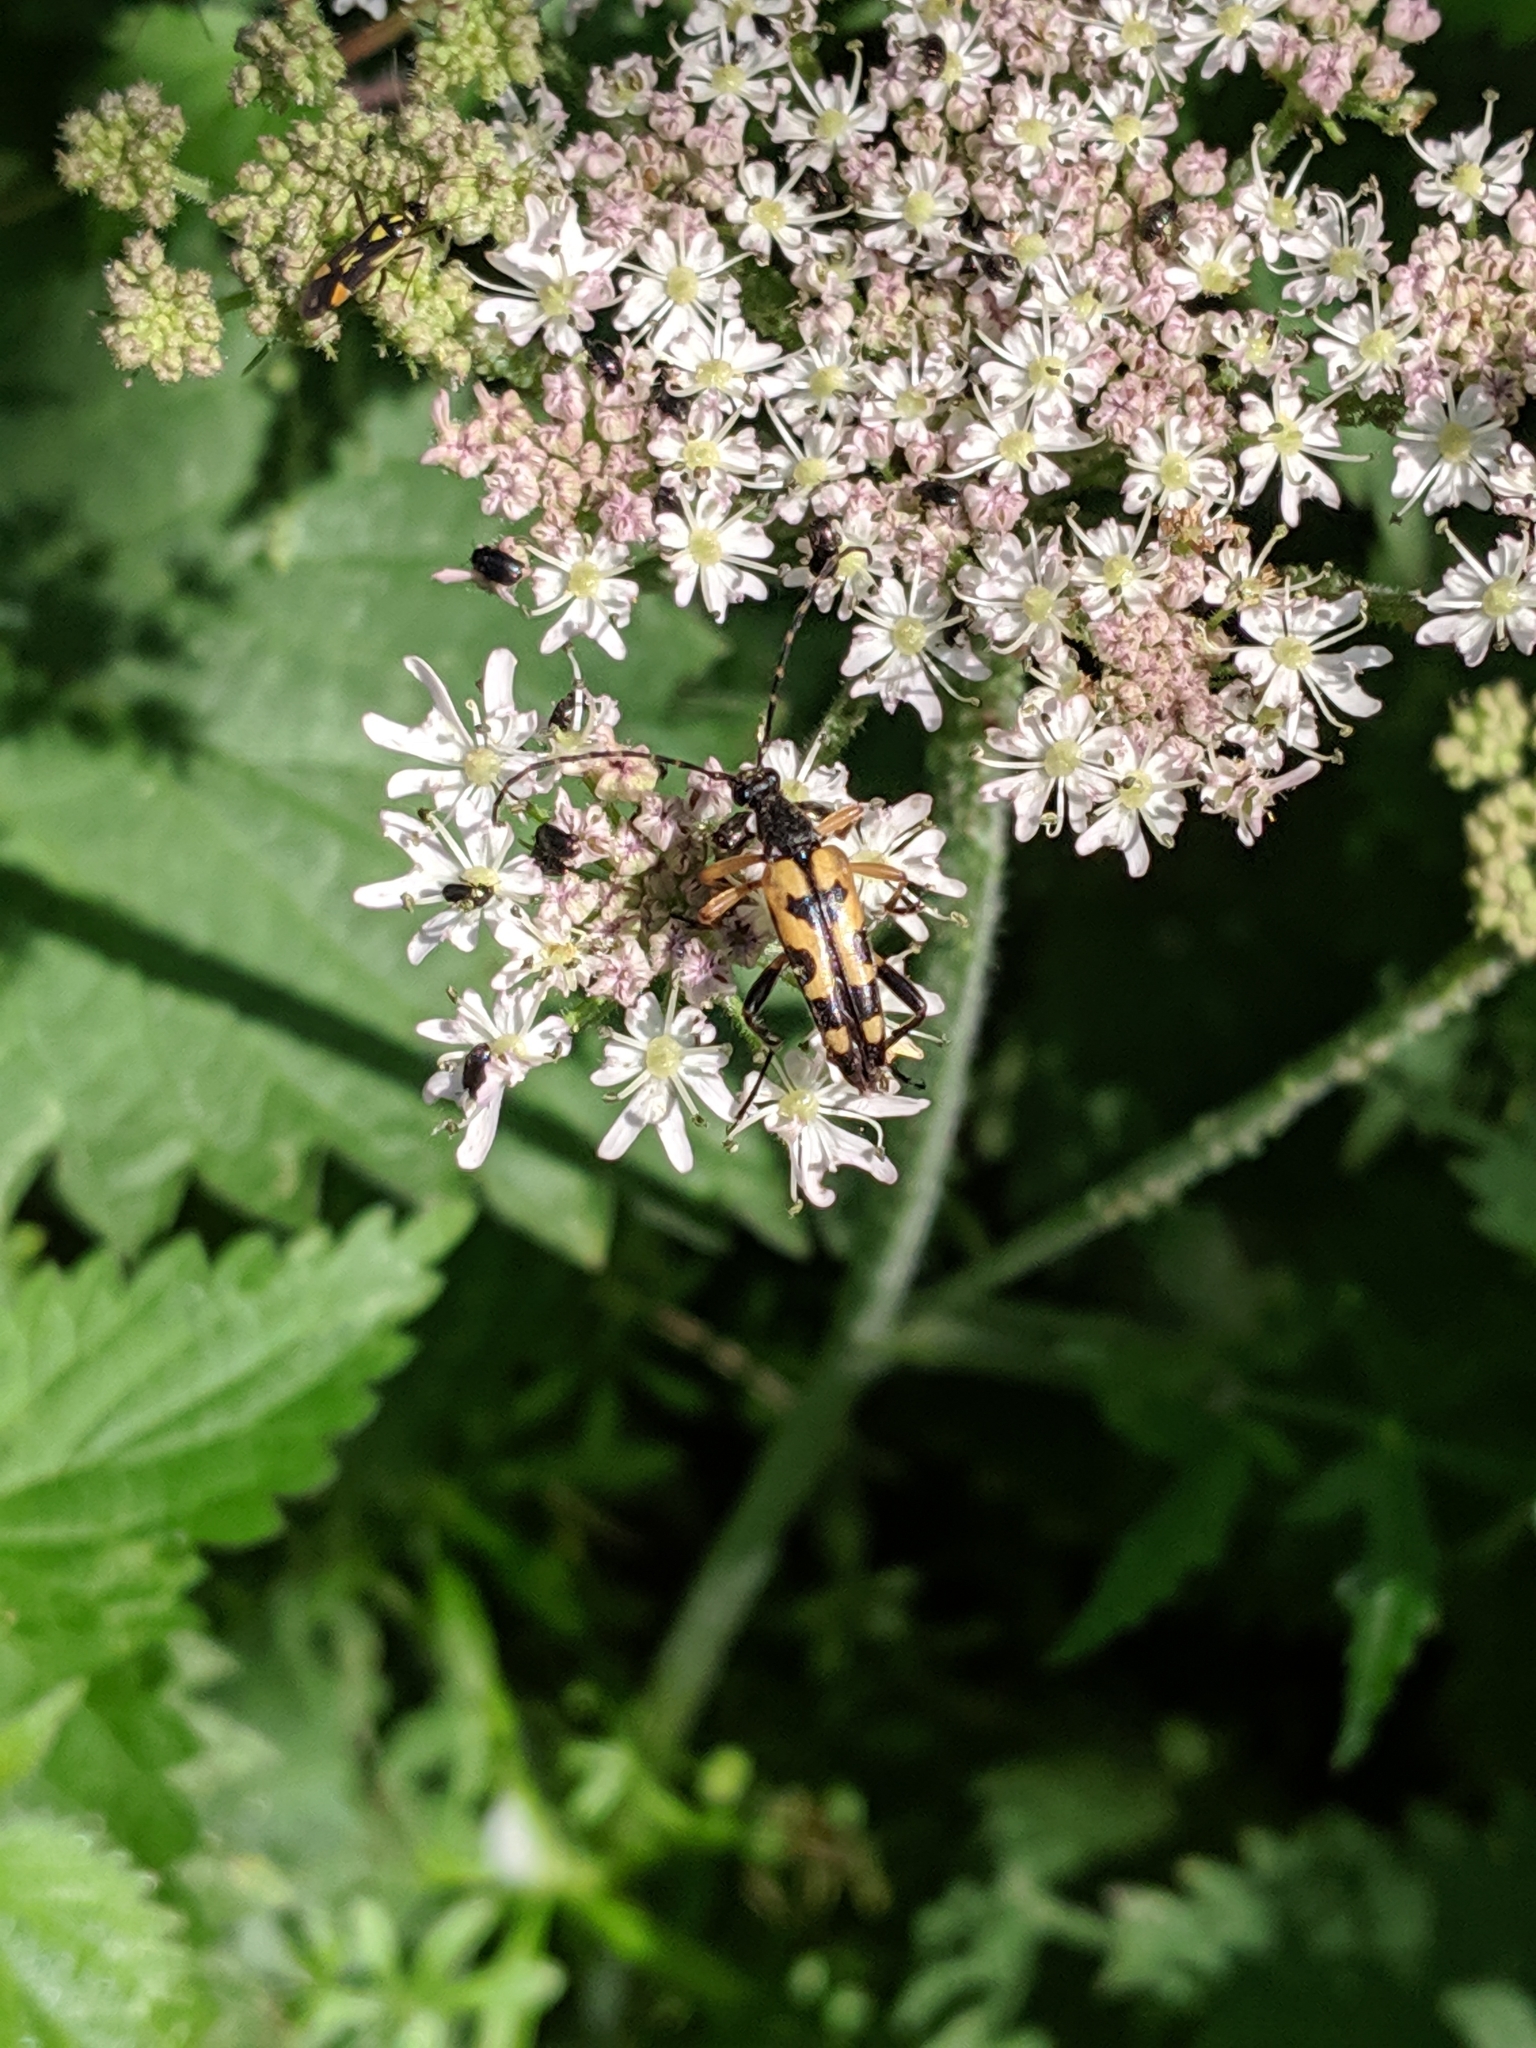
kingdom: Animalia
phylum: Arthropoda
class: Insecta
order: Coleoptera
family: Cerambycidae
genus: Rutpela
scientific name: Rutpela maculata
